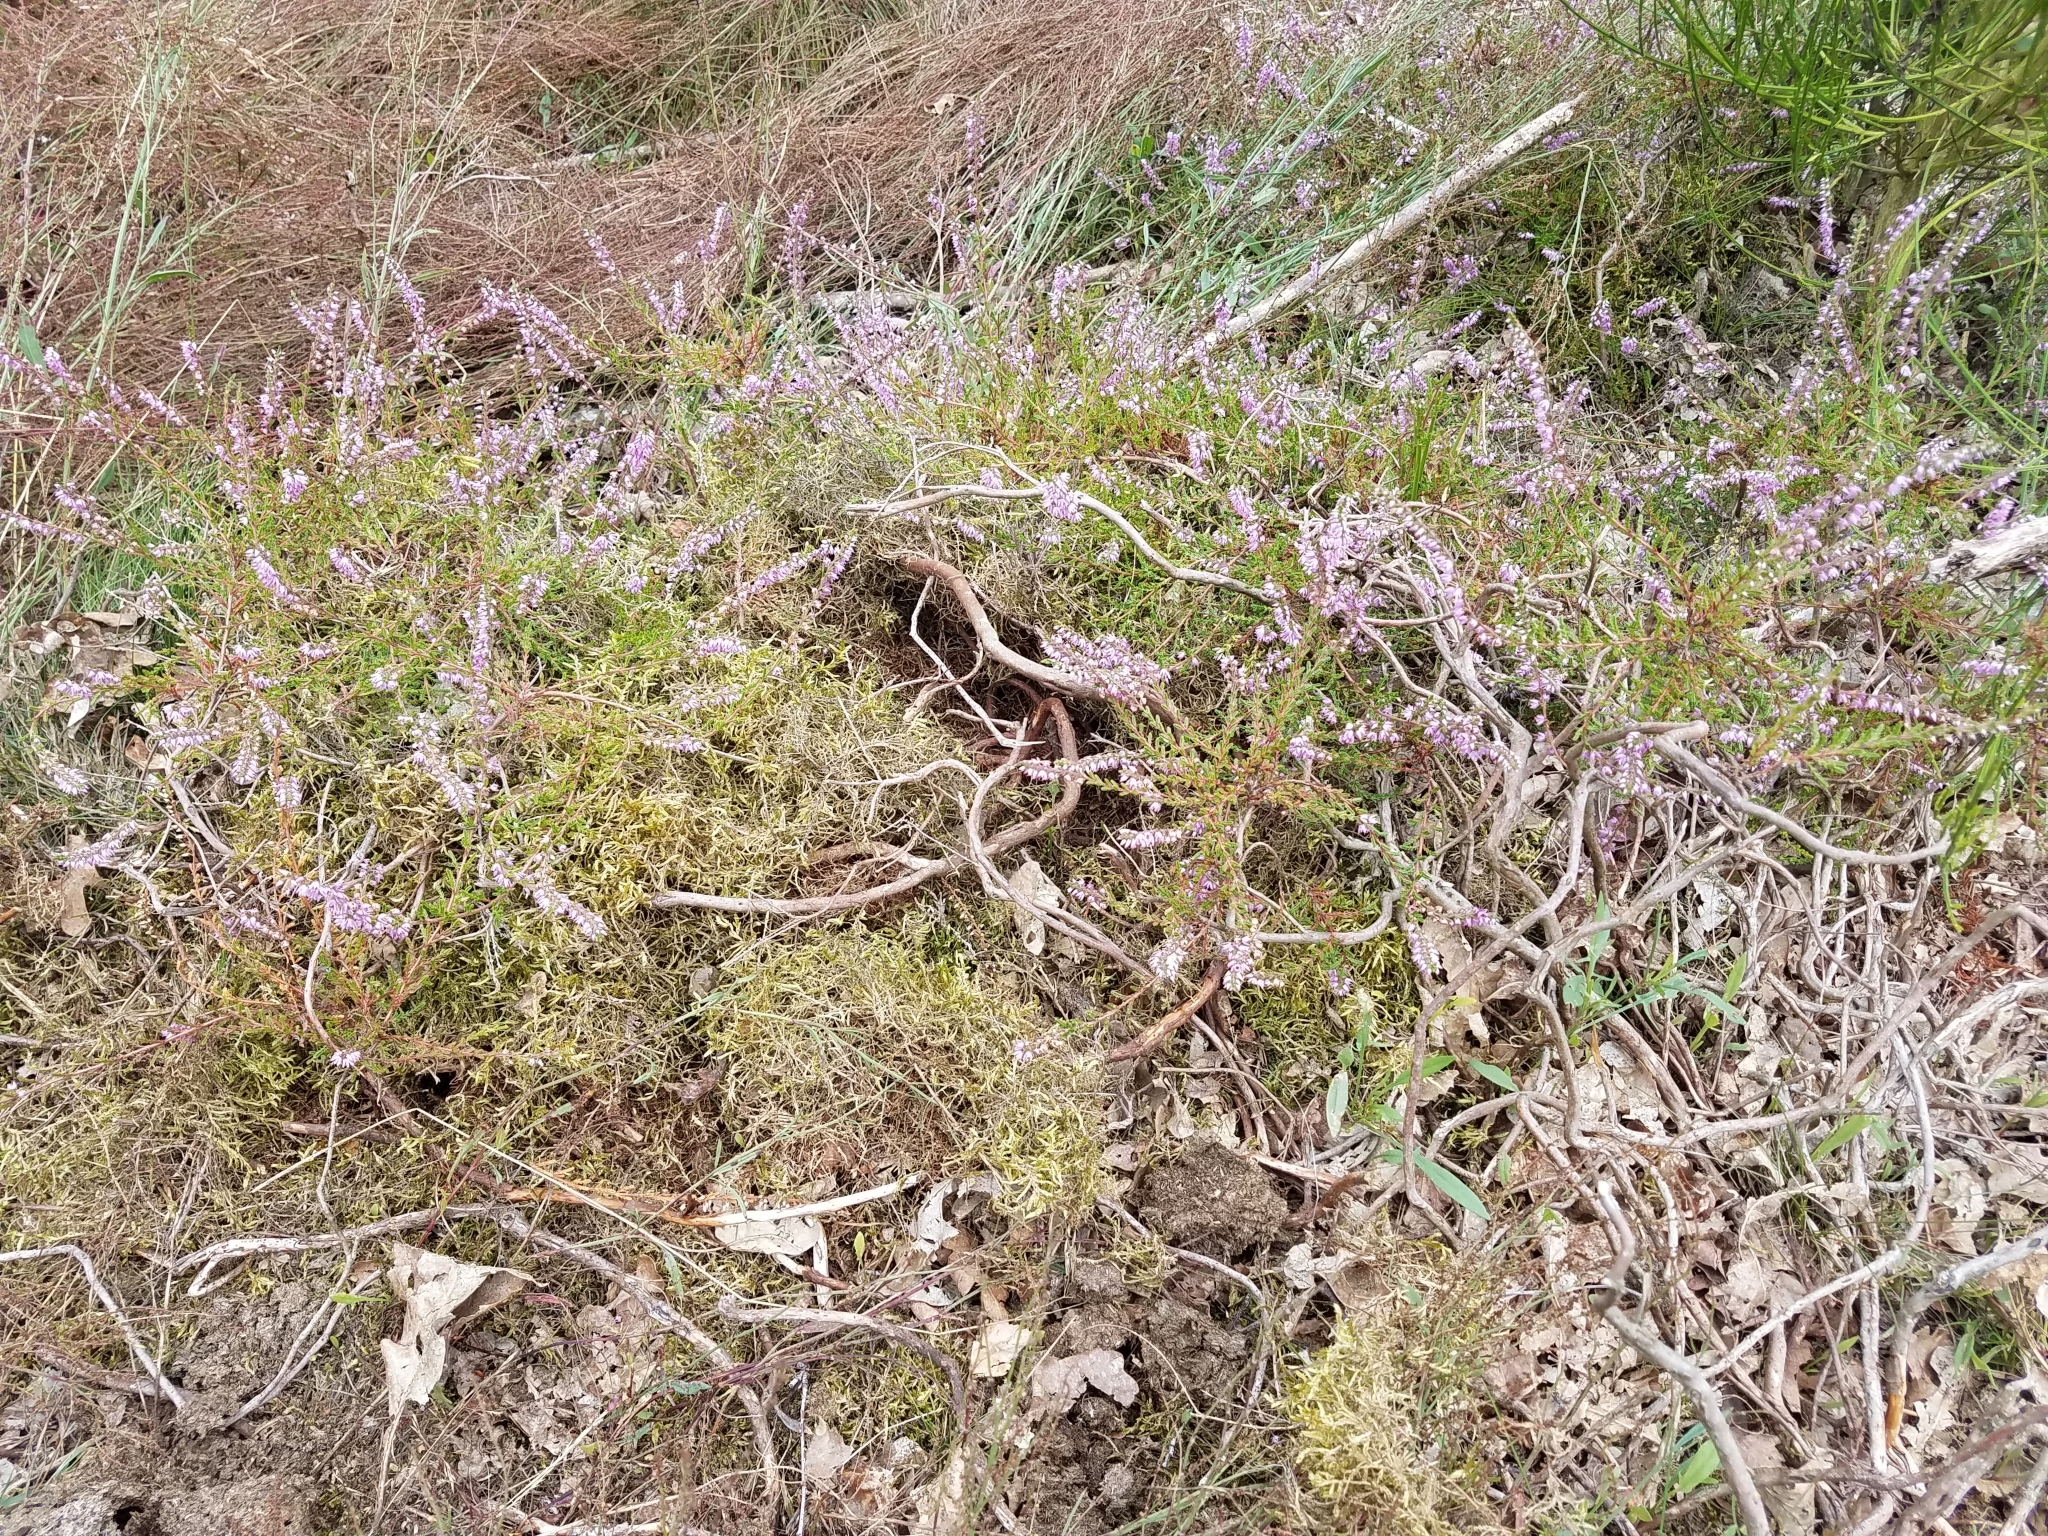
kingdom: Plantae
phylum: Tracheophyta
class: Magnoliopsida
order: Ericales
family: Ericaceae
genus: Calluna
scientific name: Calluna vulgaris
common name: Heather
